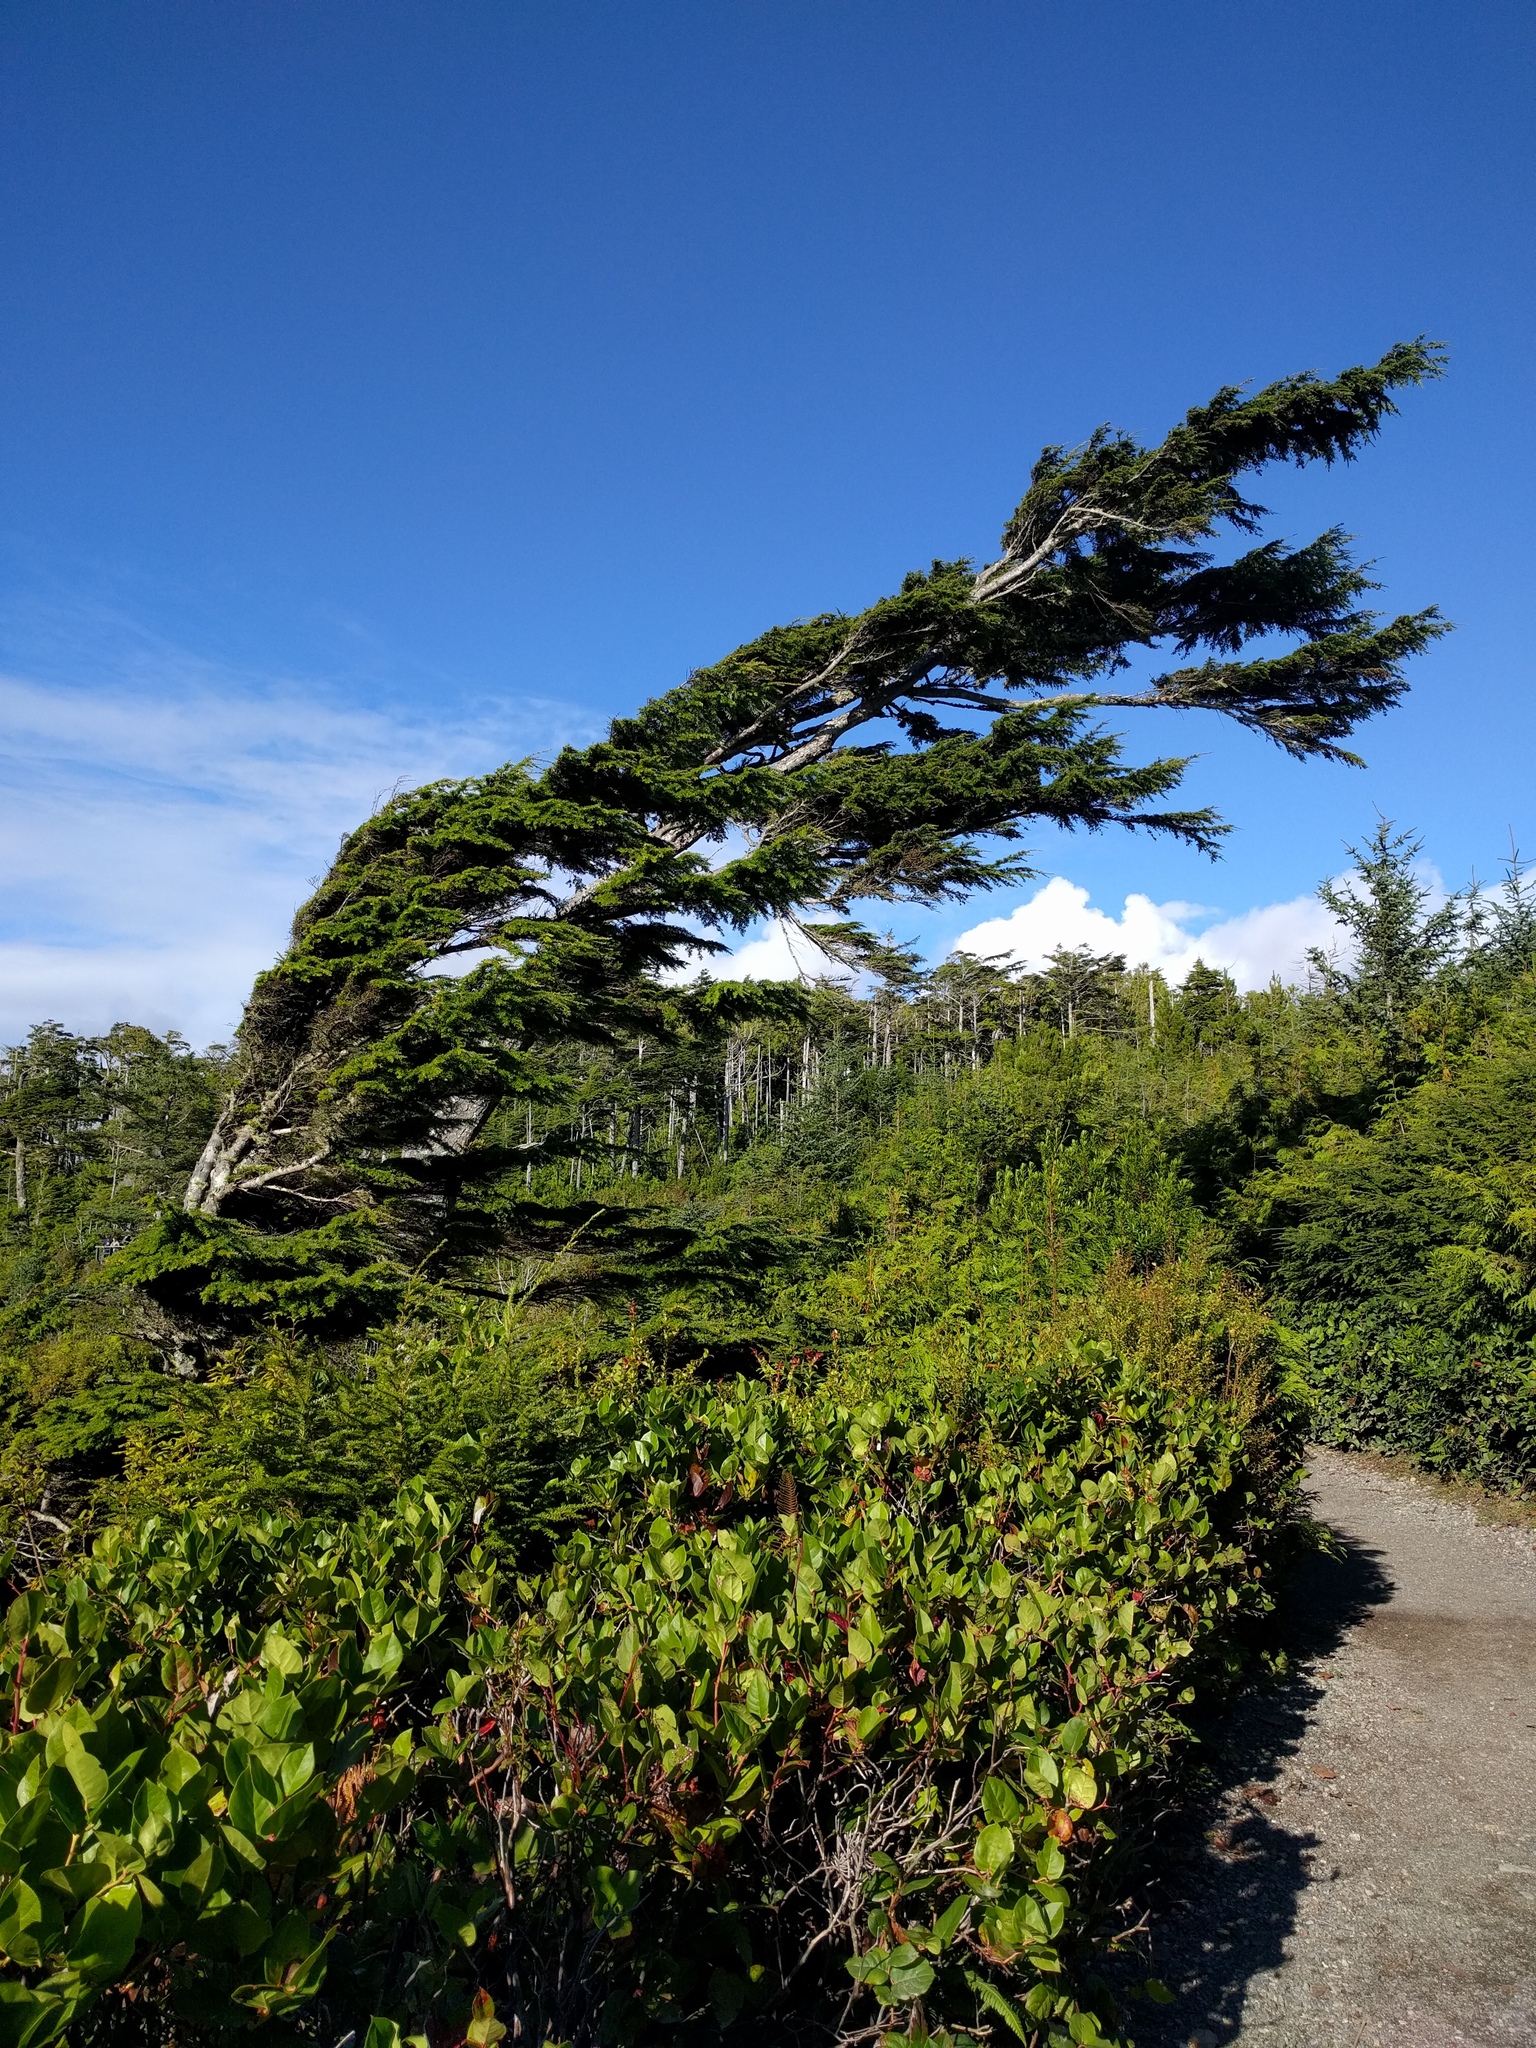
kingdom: Plantae
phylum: Tracheophyta
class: Pinopsida
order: Pinales
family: Pinaceae
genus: Tsuga
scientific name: Tsuga heterophylla
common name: Western hemlock
